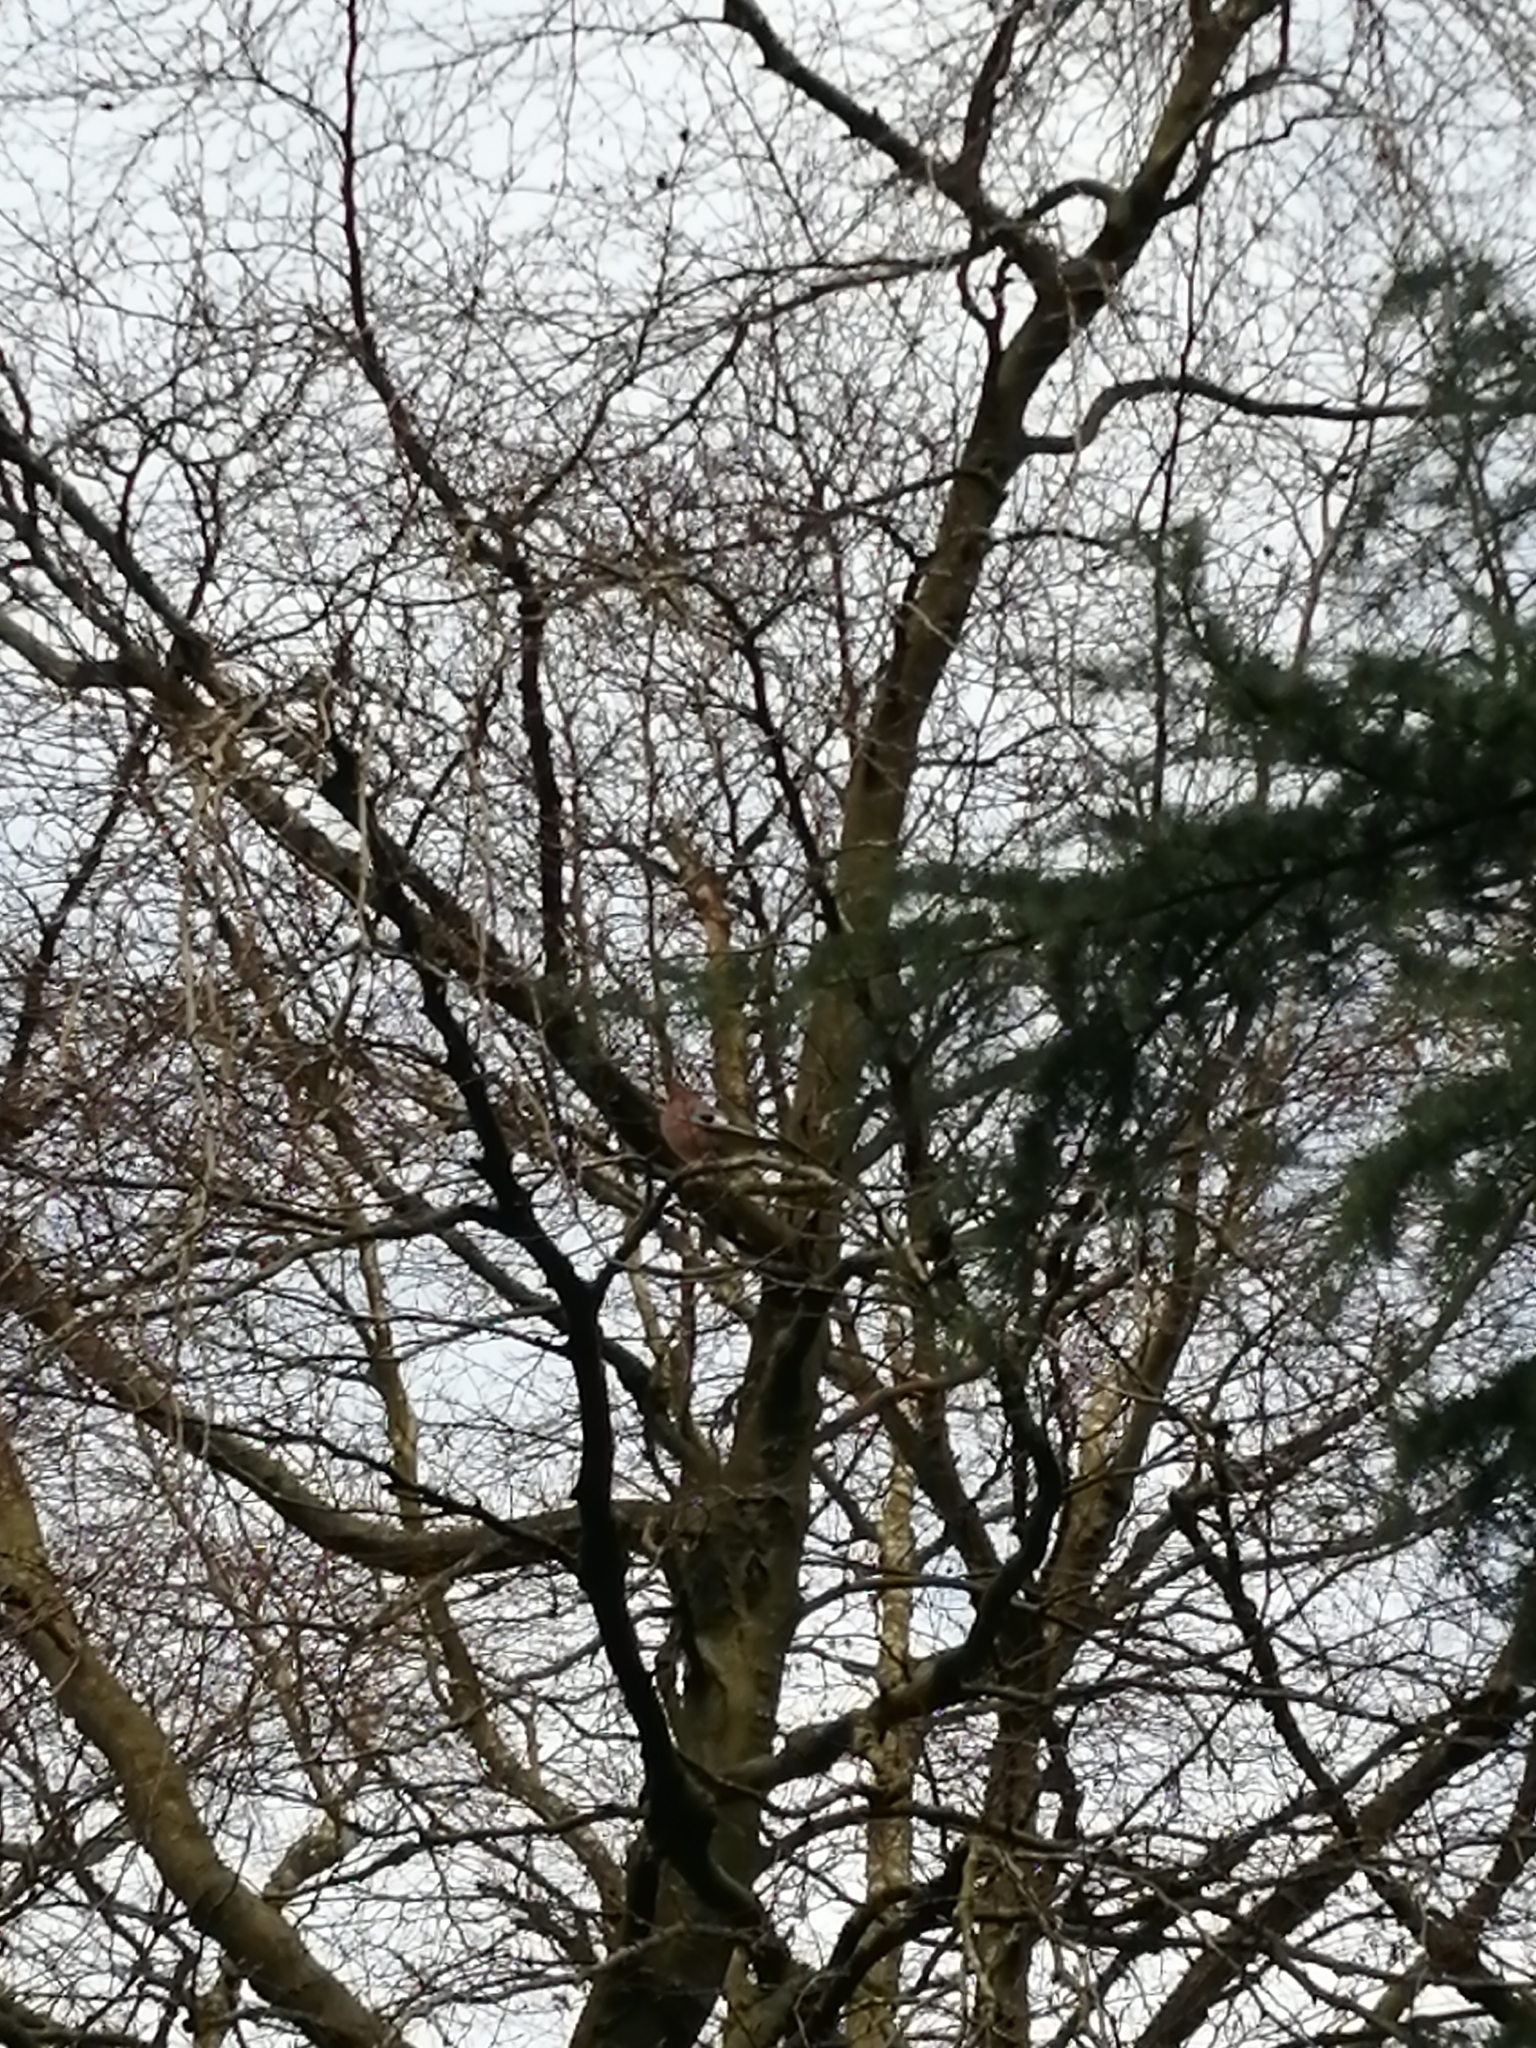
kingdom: Animalia
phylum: Chordata
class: Aves
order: Passeriformes
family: Corvidae
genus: Garrulus
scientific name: Garrulus glandarius
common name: Eurasian jay
